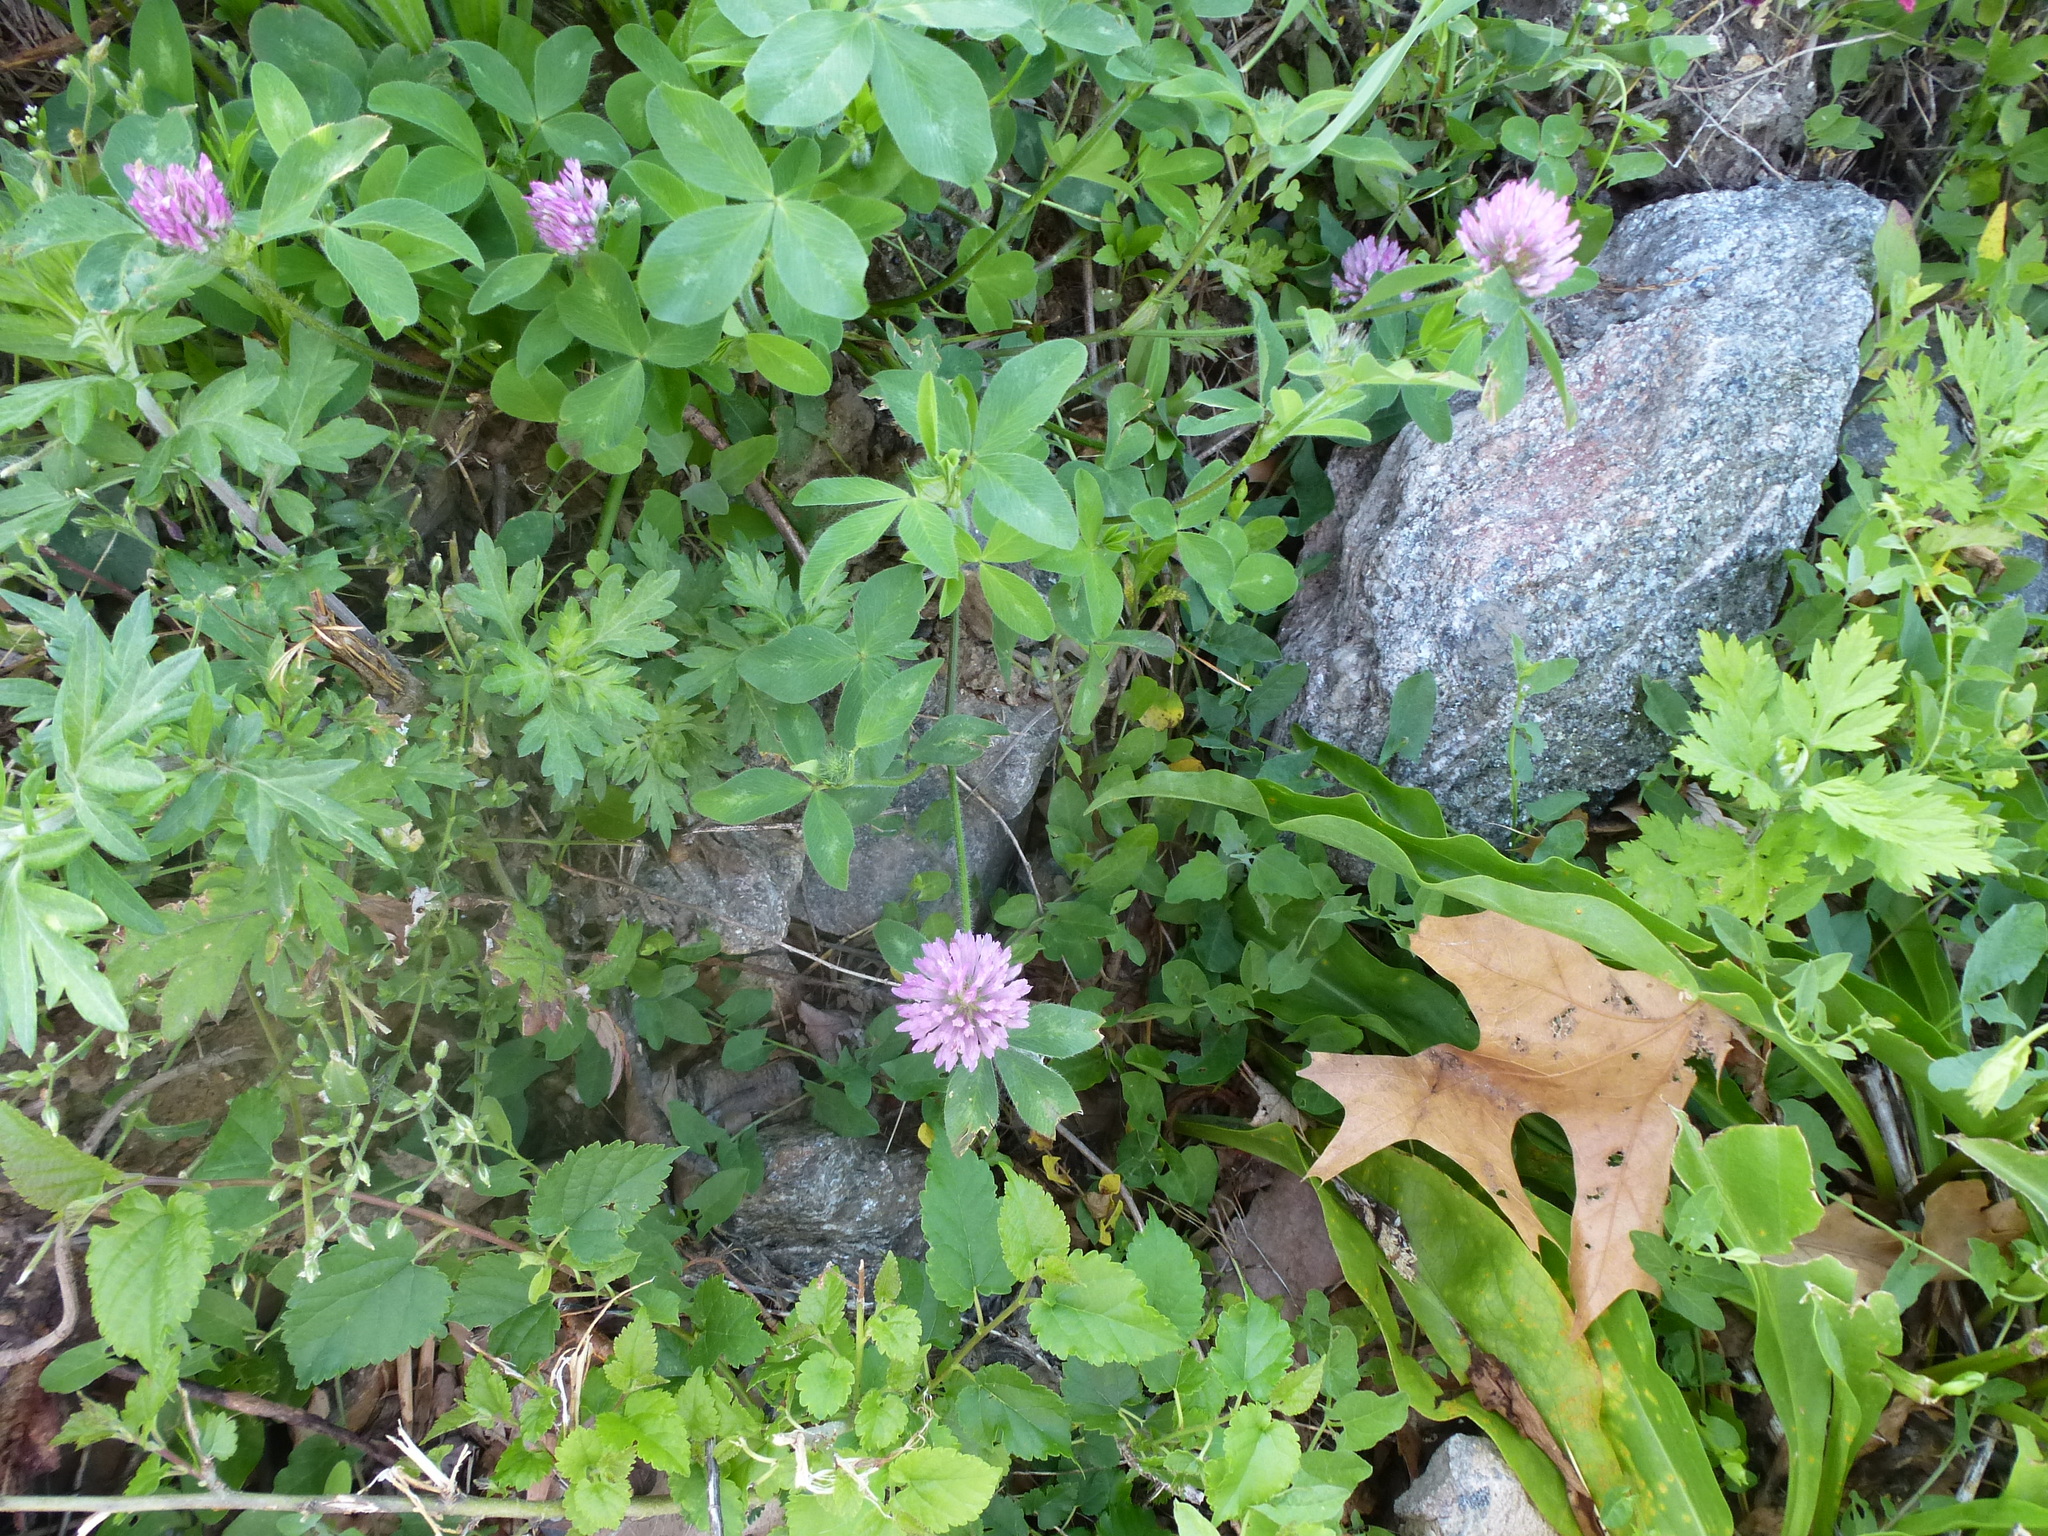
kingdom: Plantae
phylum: Tracheophyta
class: Magnoliopsida
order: Fabales
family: Fabaceae
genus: Trifolium
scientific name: Trifolium pratense
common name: Red clover
